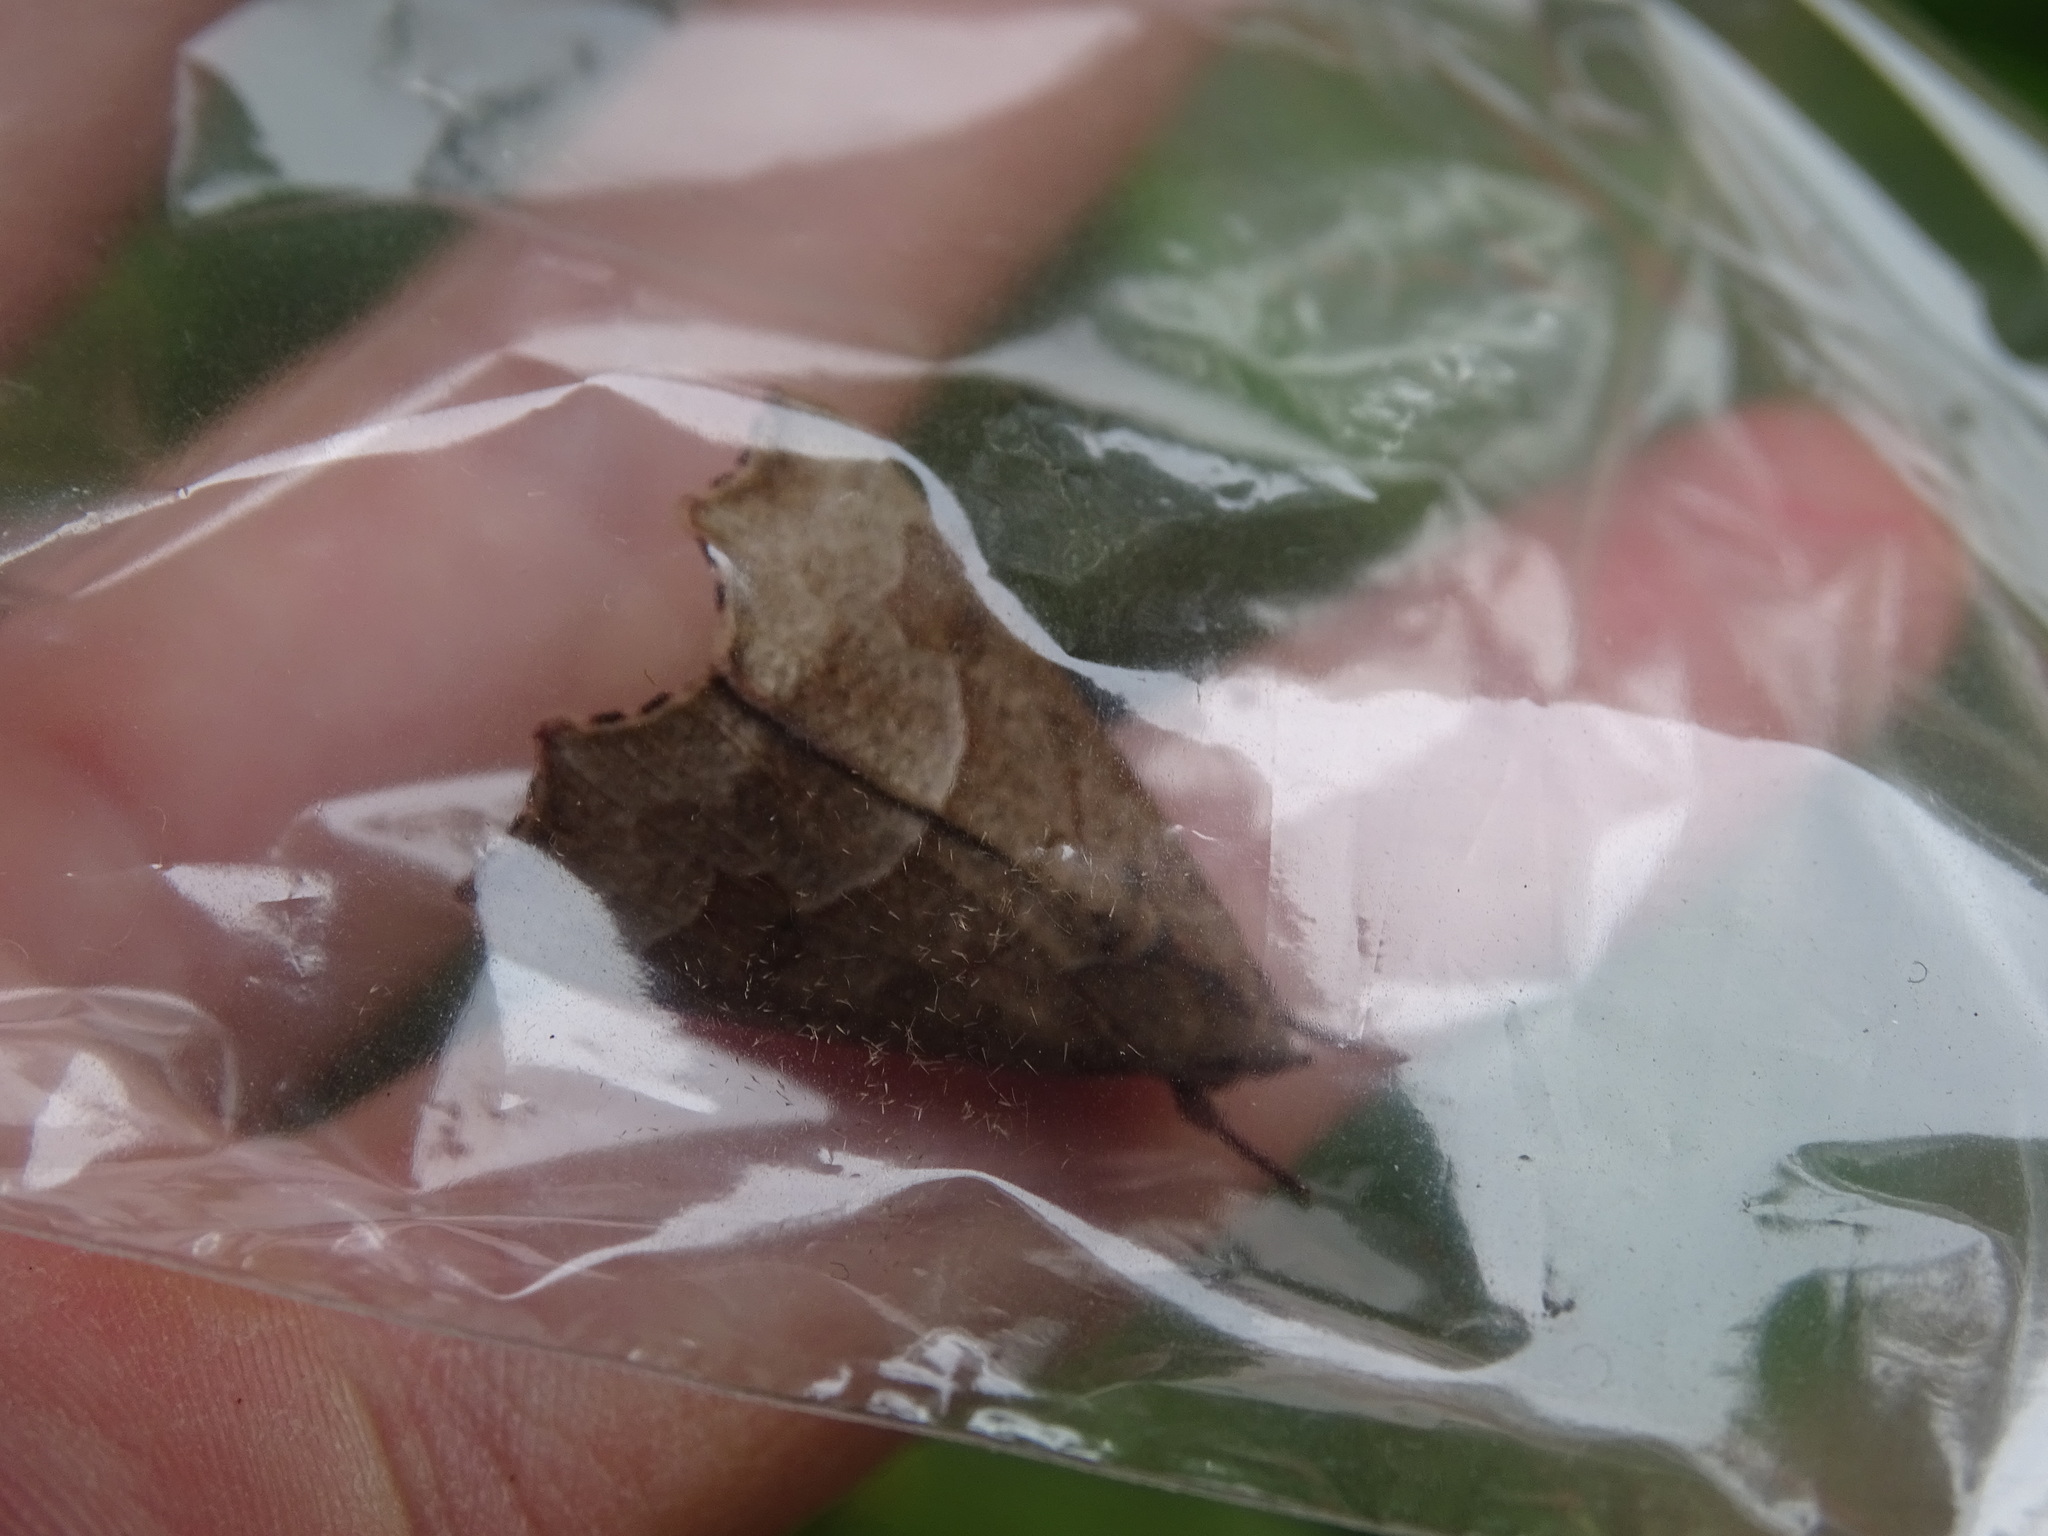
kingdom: Animalia
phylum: Arthropoda
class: Insecta
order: Lepidoptera
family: Erebidae
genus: Anomis
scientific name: Anomis editrix
